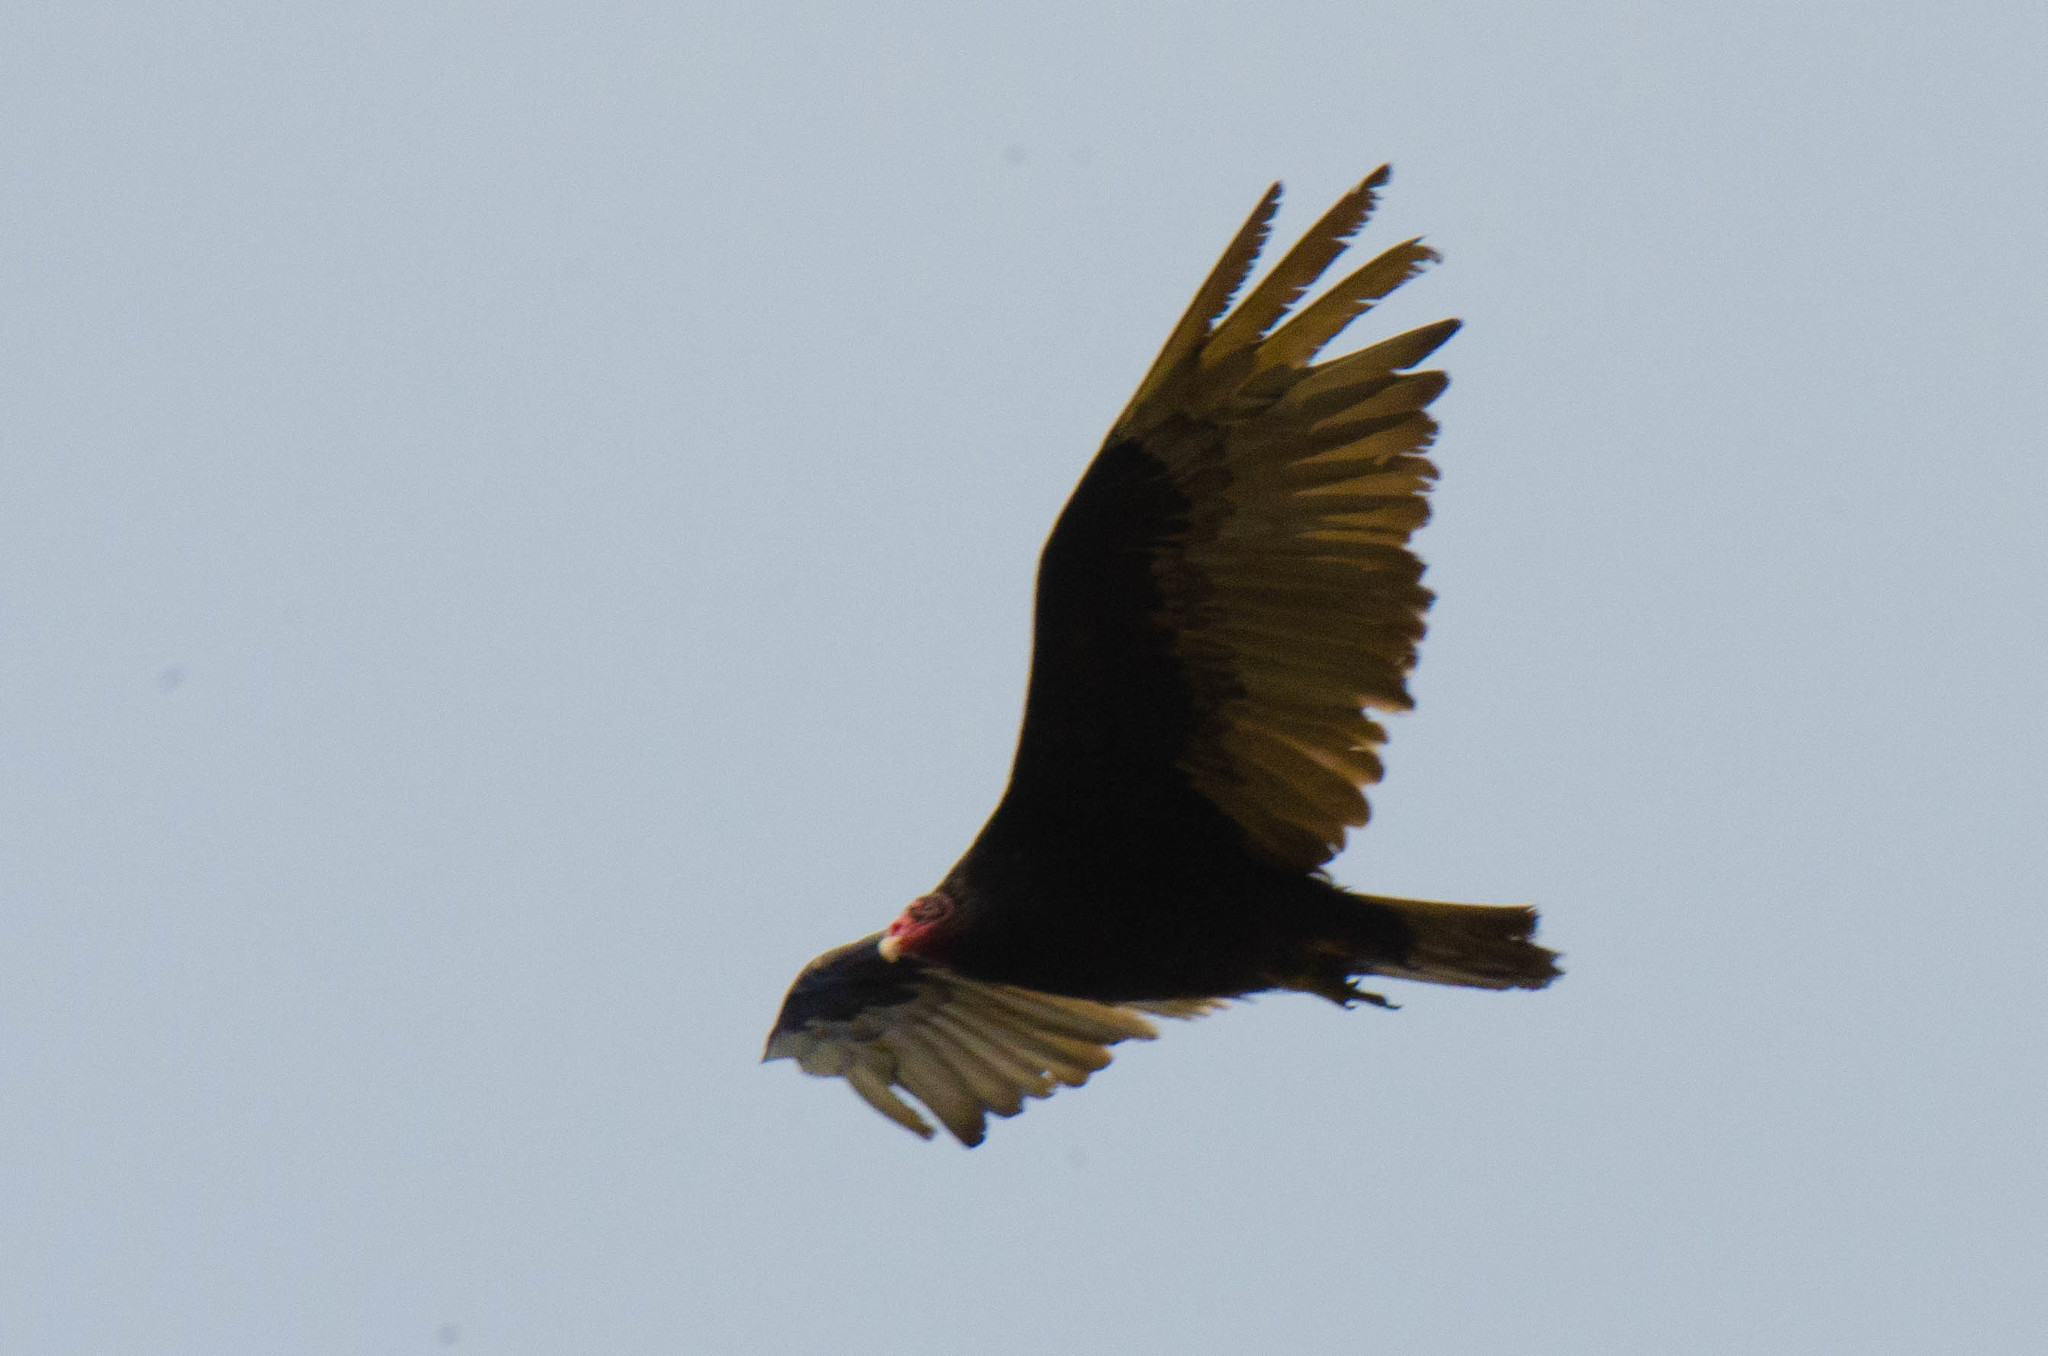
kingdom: Animalia
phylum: Chordata
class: Aves
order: Accipitriformes
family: Cathartidae
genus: Cathartes
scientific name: Cathartes aura
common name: Turkey vulture
